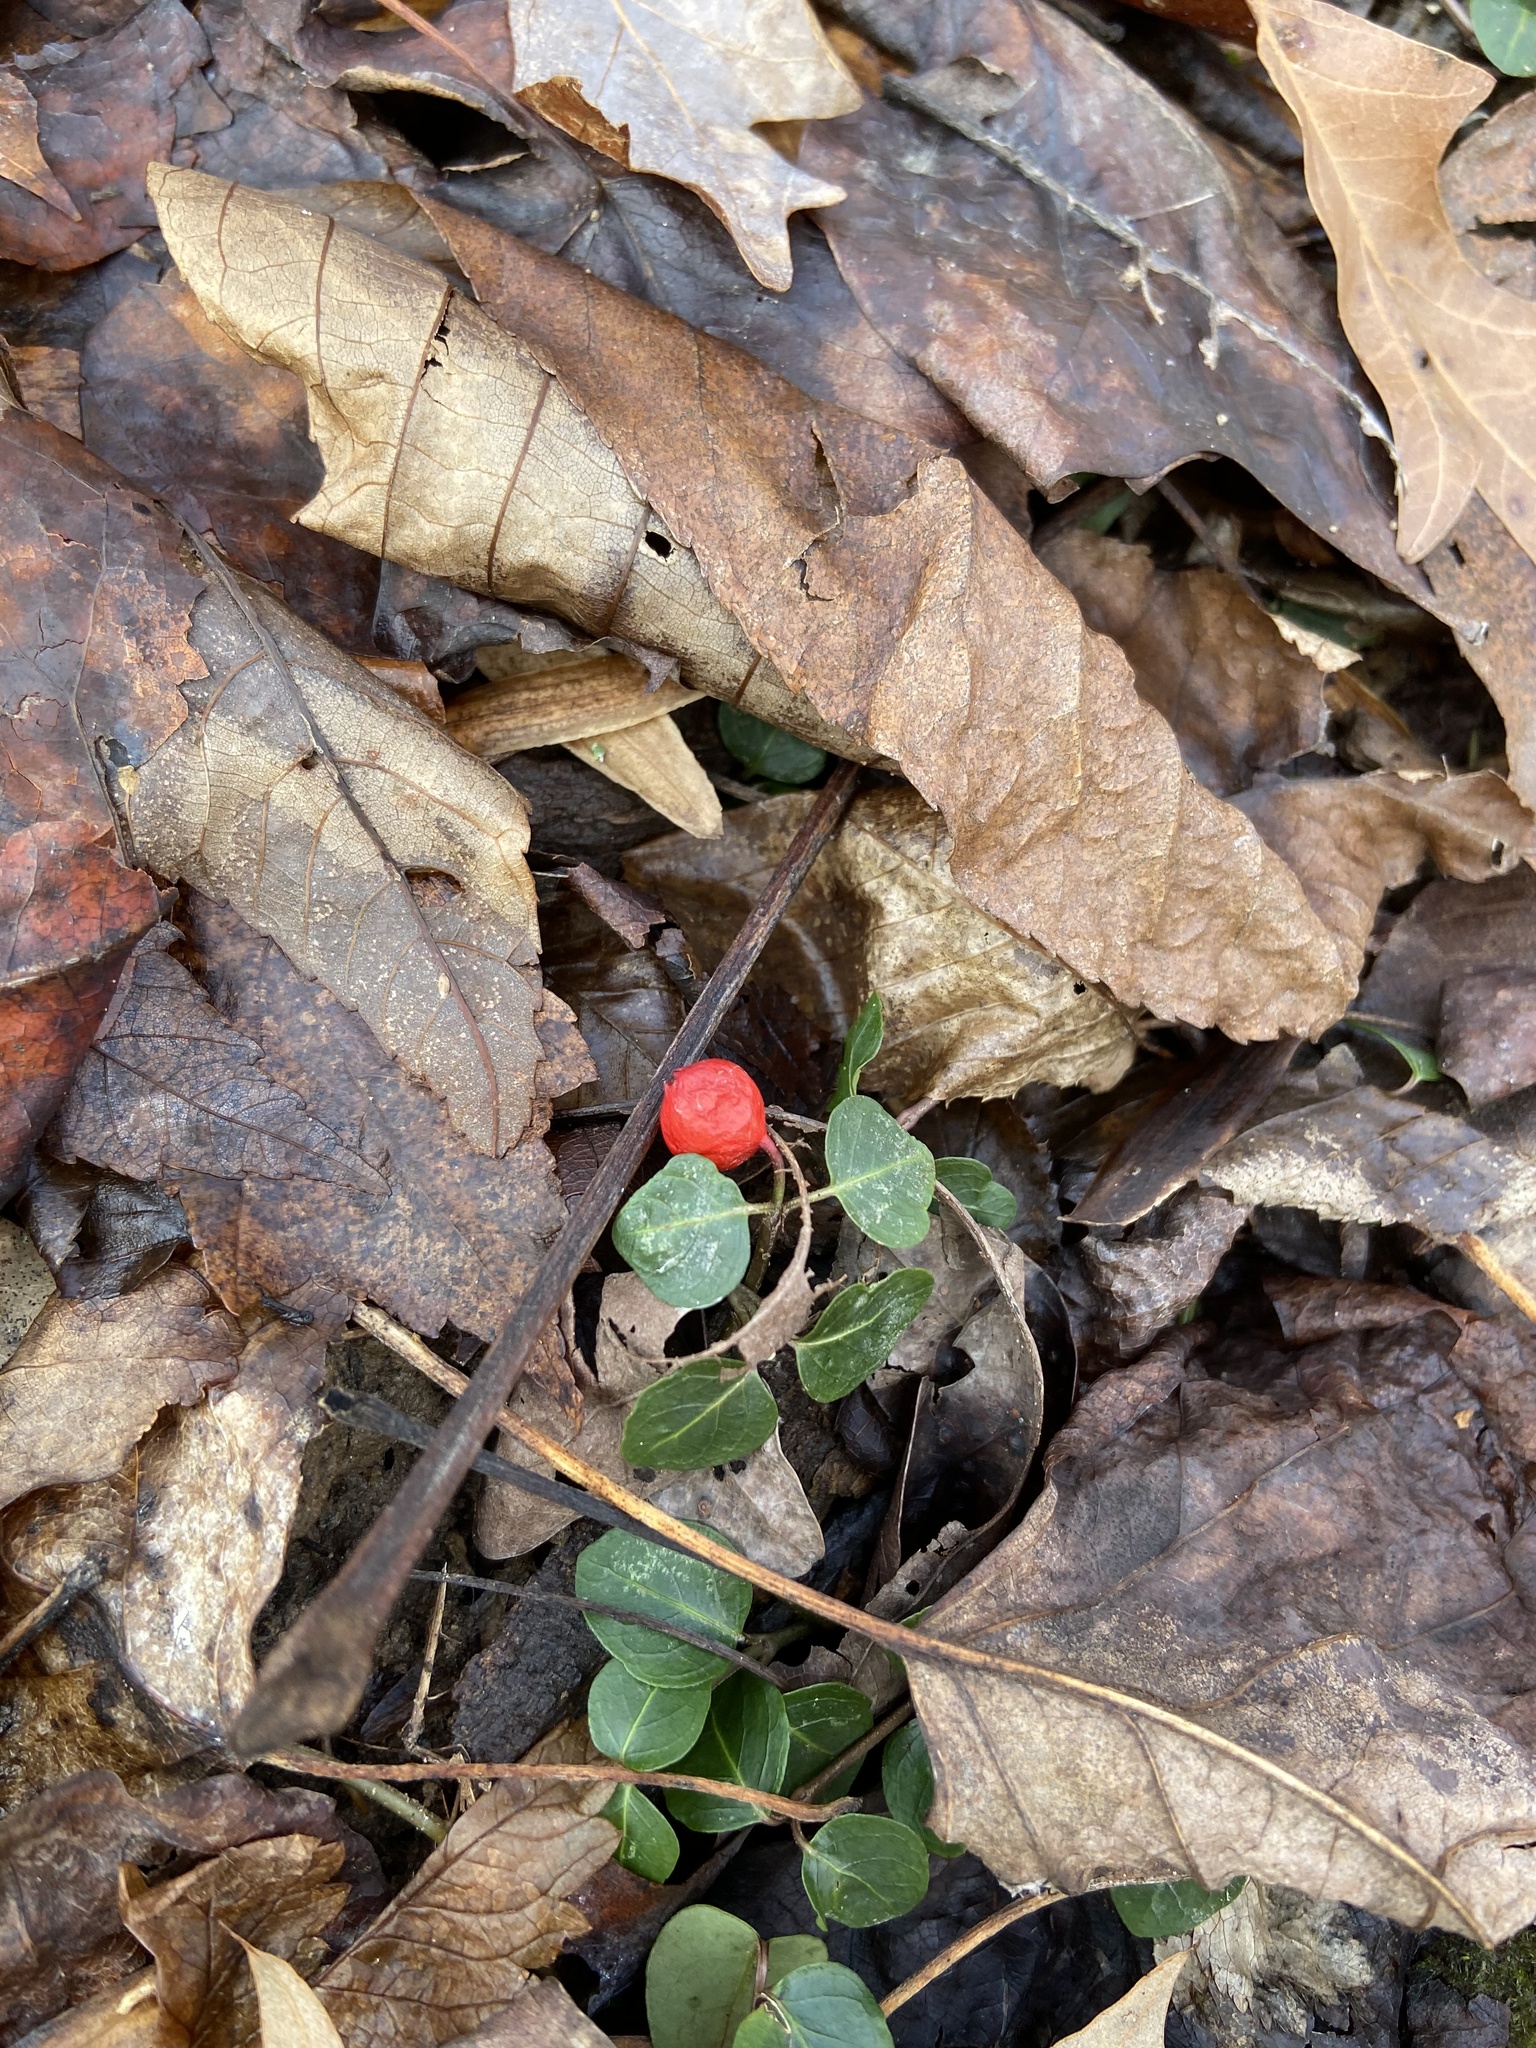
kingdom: Plantae
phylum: Tracheophyta
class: Magnoliopsida
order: Gentianales
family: Rubiaceae
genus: Mitchella
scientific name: Mitchella repens
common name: Partridge-berry
